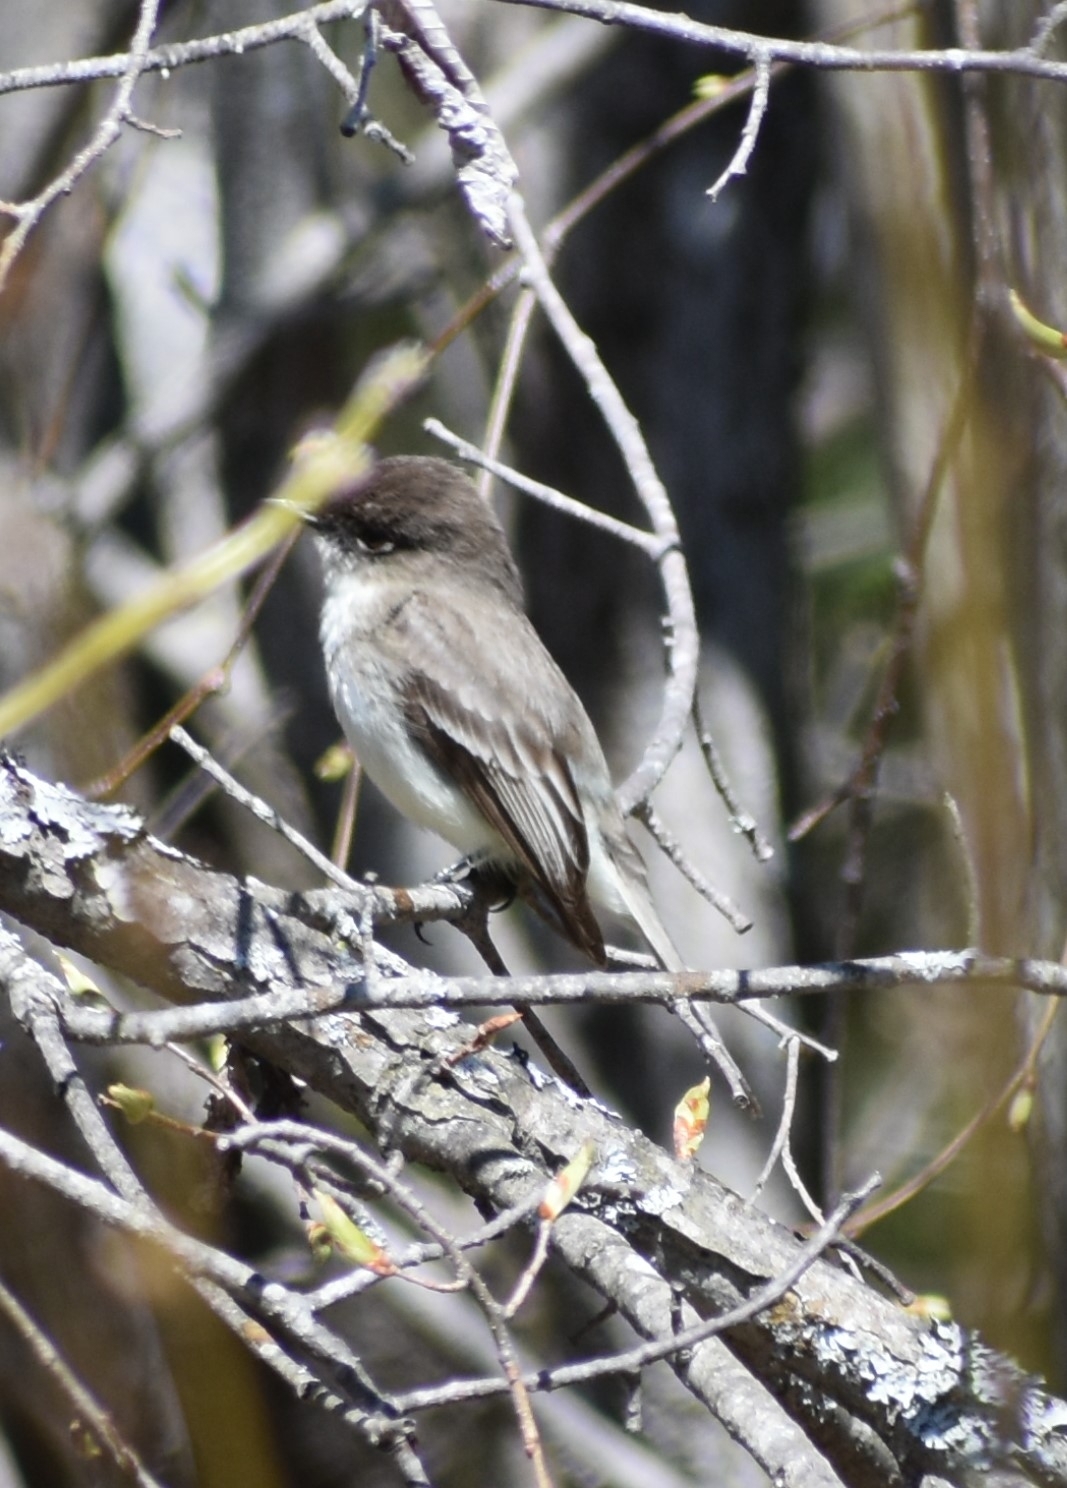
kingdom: Animalia
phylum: Chordata
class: Aves
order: Passeriformes
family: Tyrannidae
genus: Sayornis
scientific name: Sayornis phoebe
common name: Eastern phoebe
